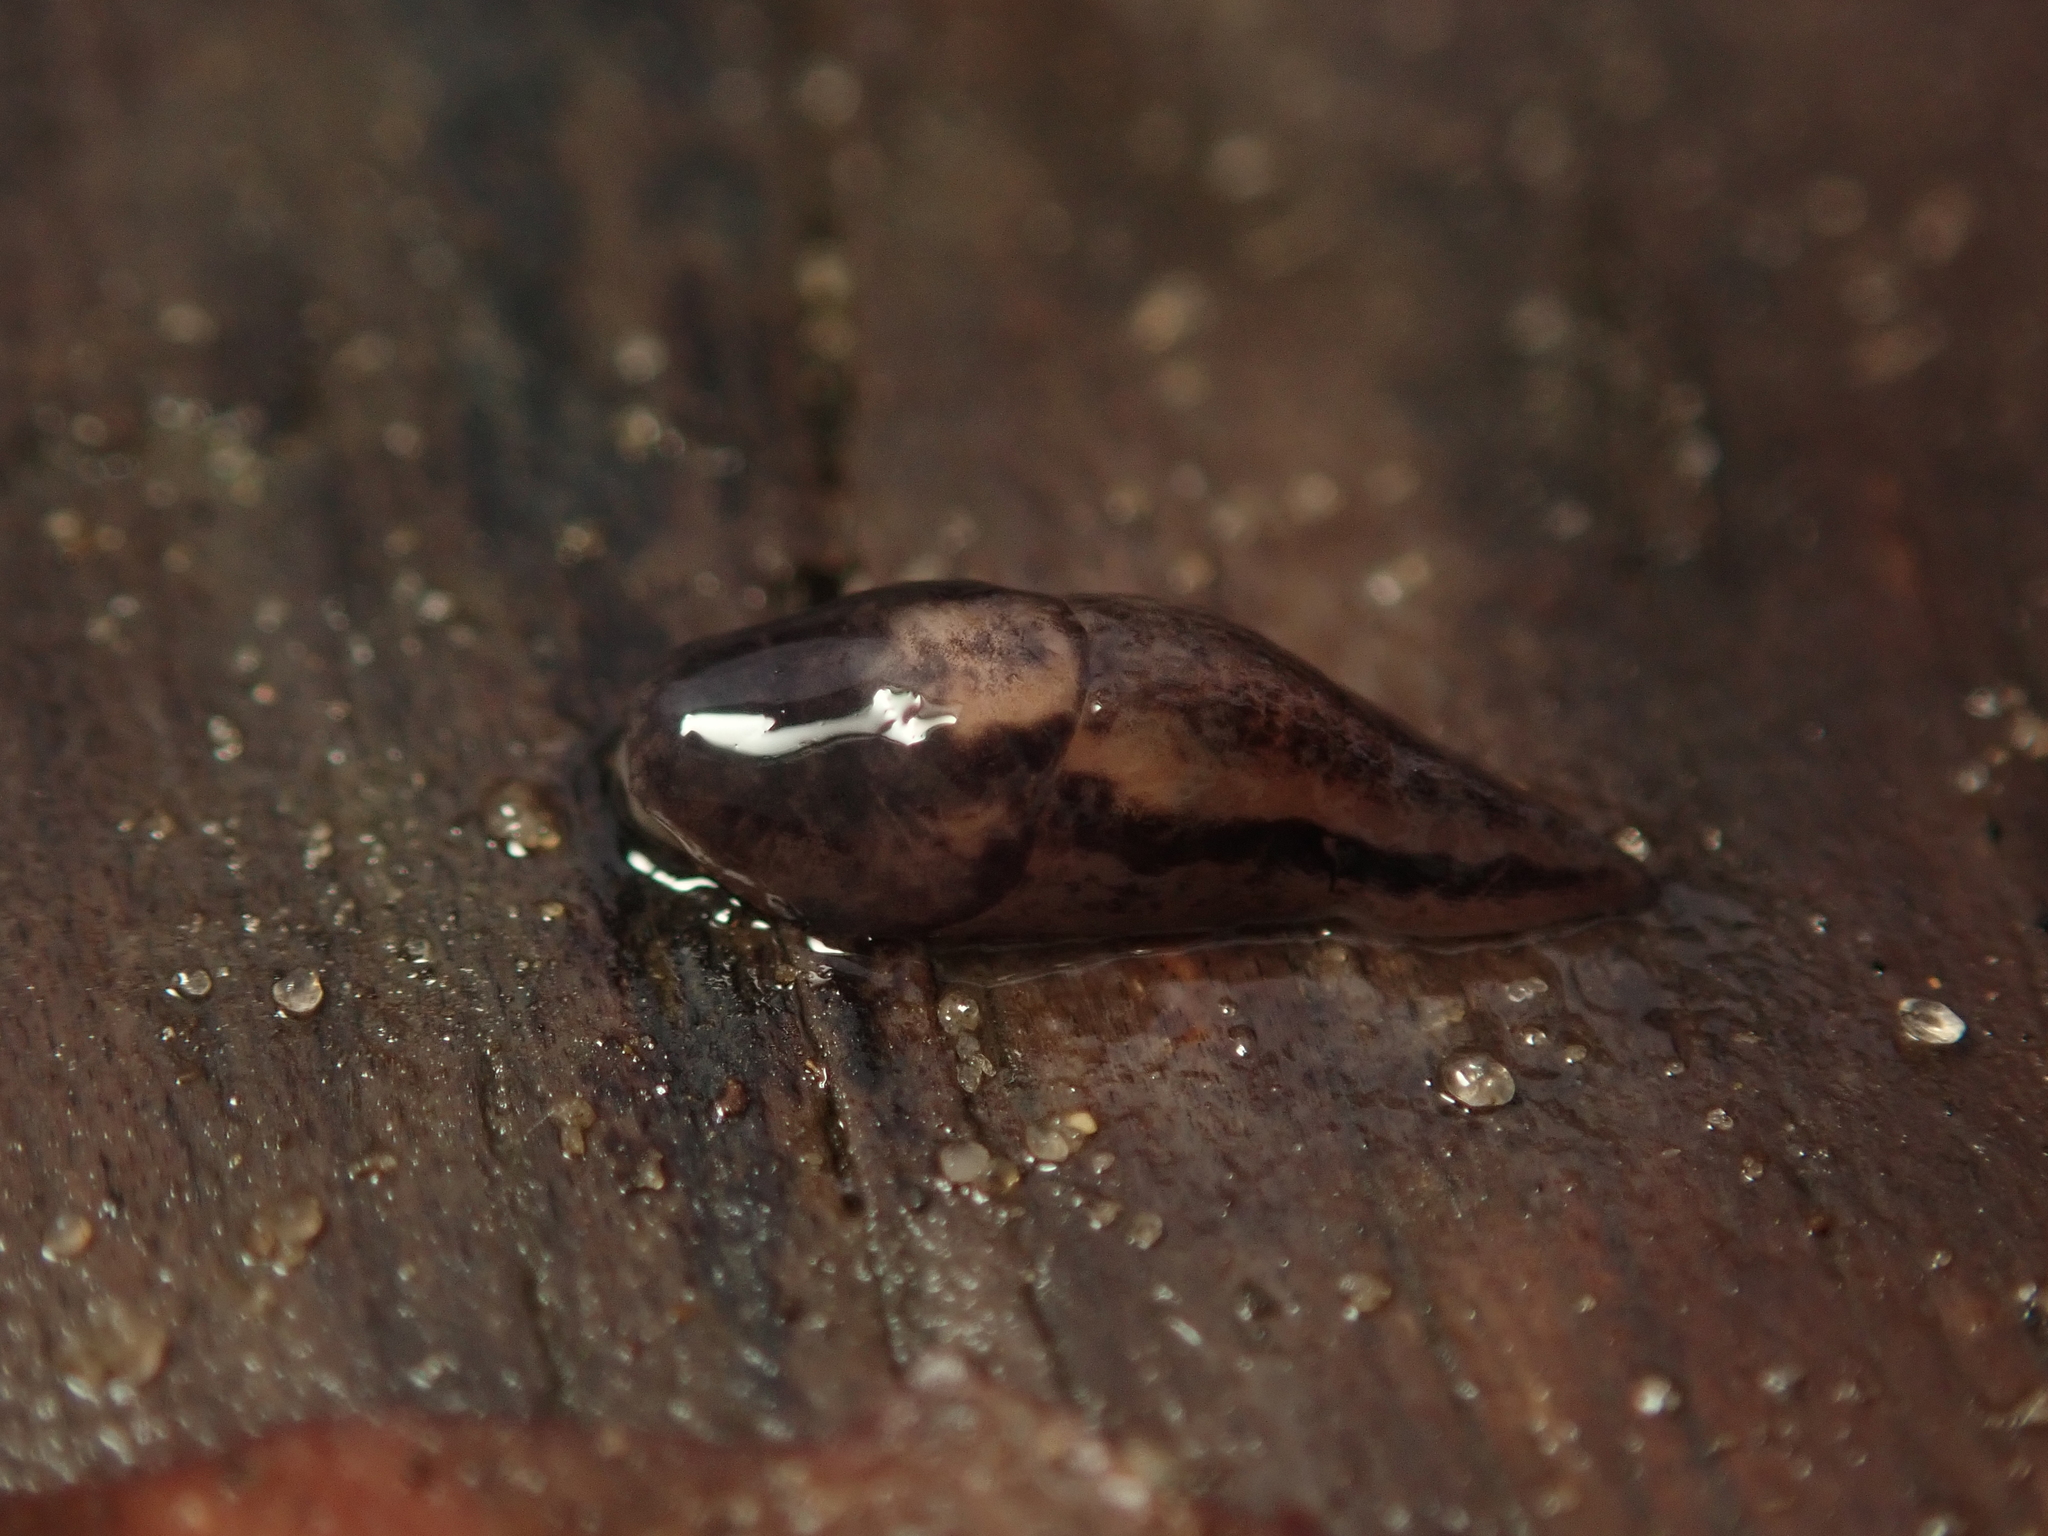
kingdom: Animalia
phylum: Mollusca
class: Gastropoda
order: Stylommatophora
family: Limacidae
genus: Limax
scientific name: Limax maximus
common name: Great grey slug
